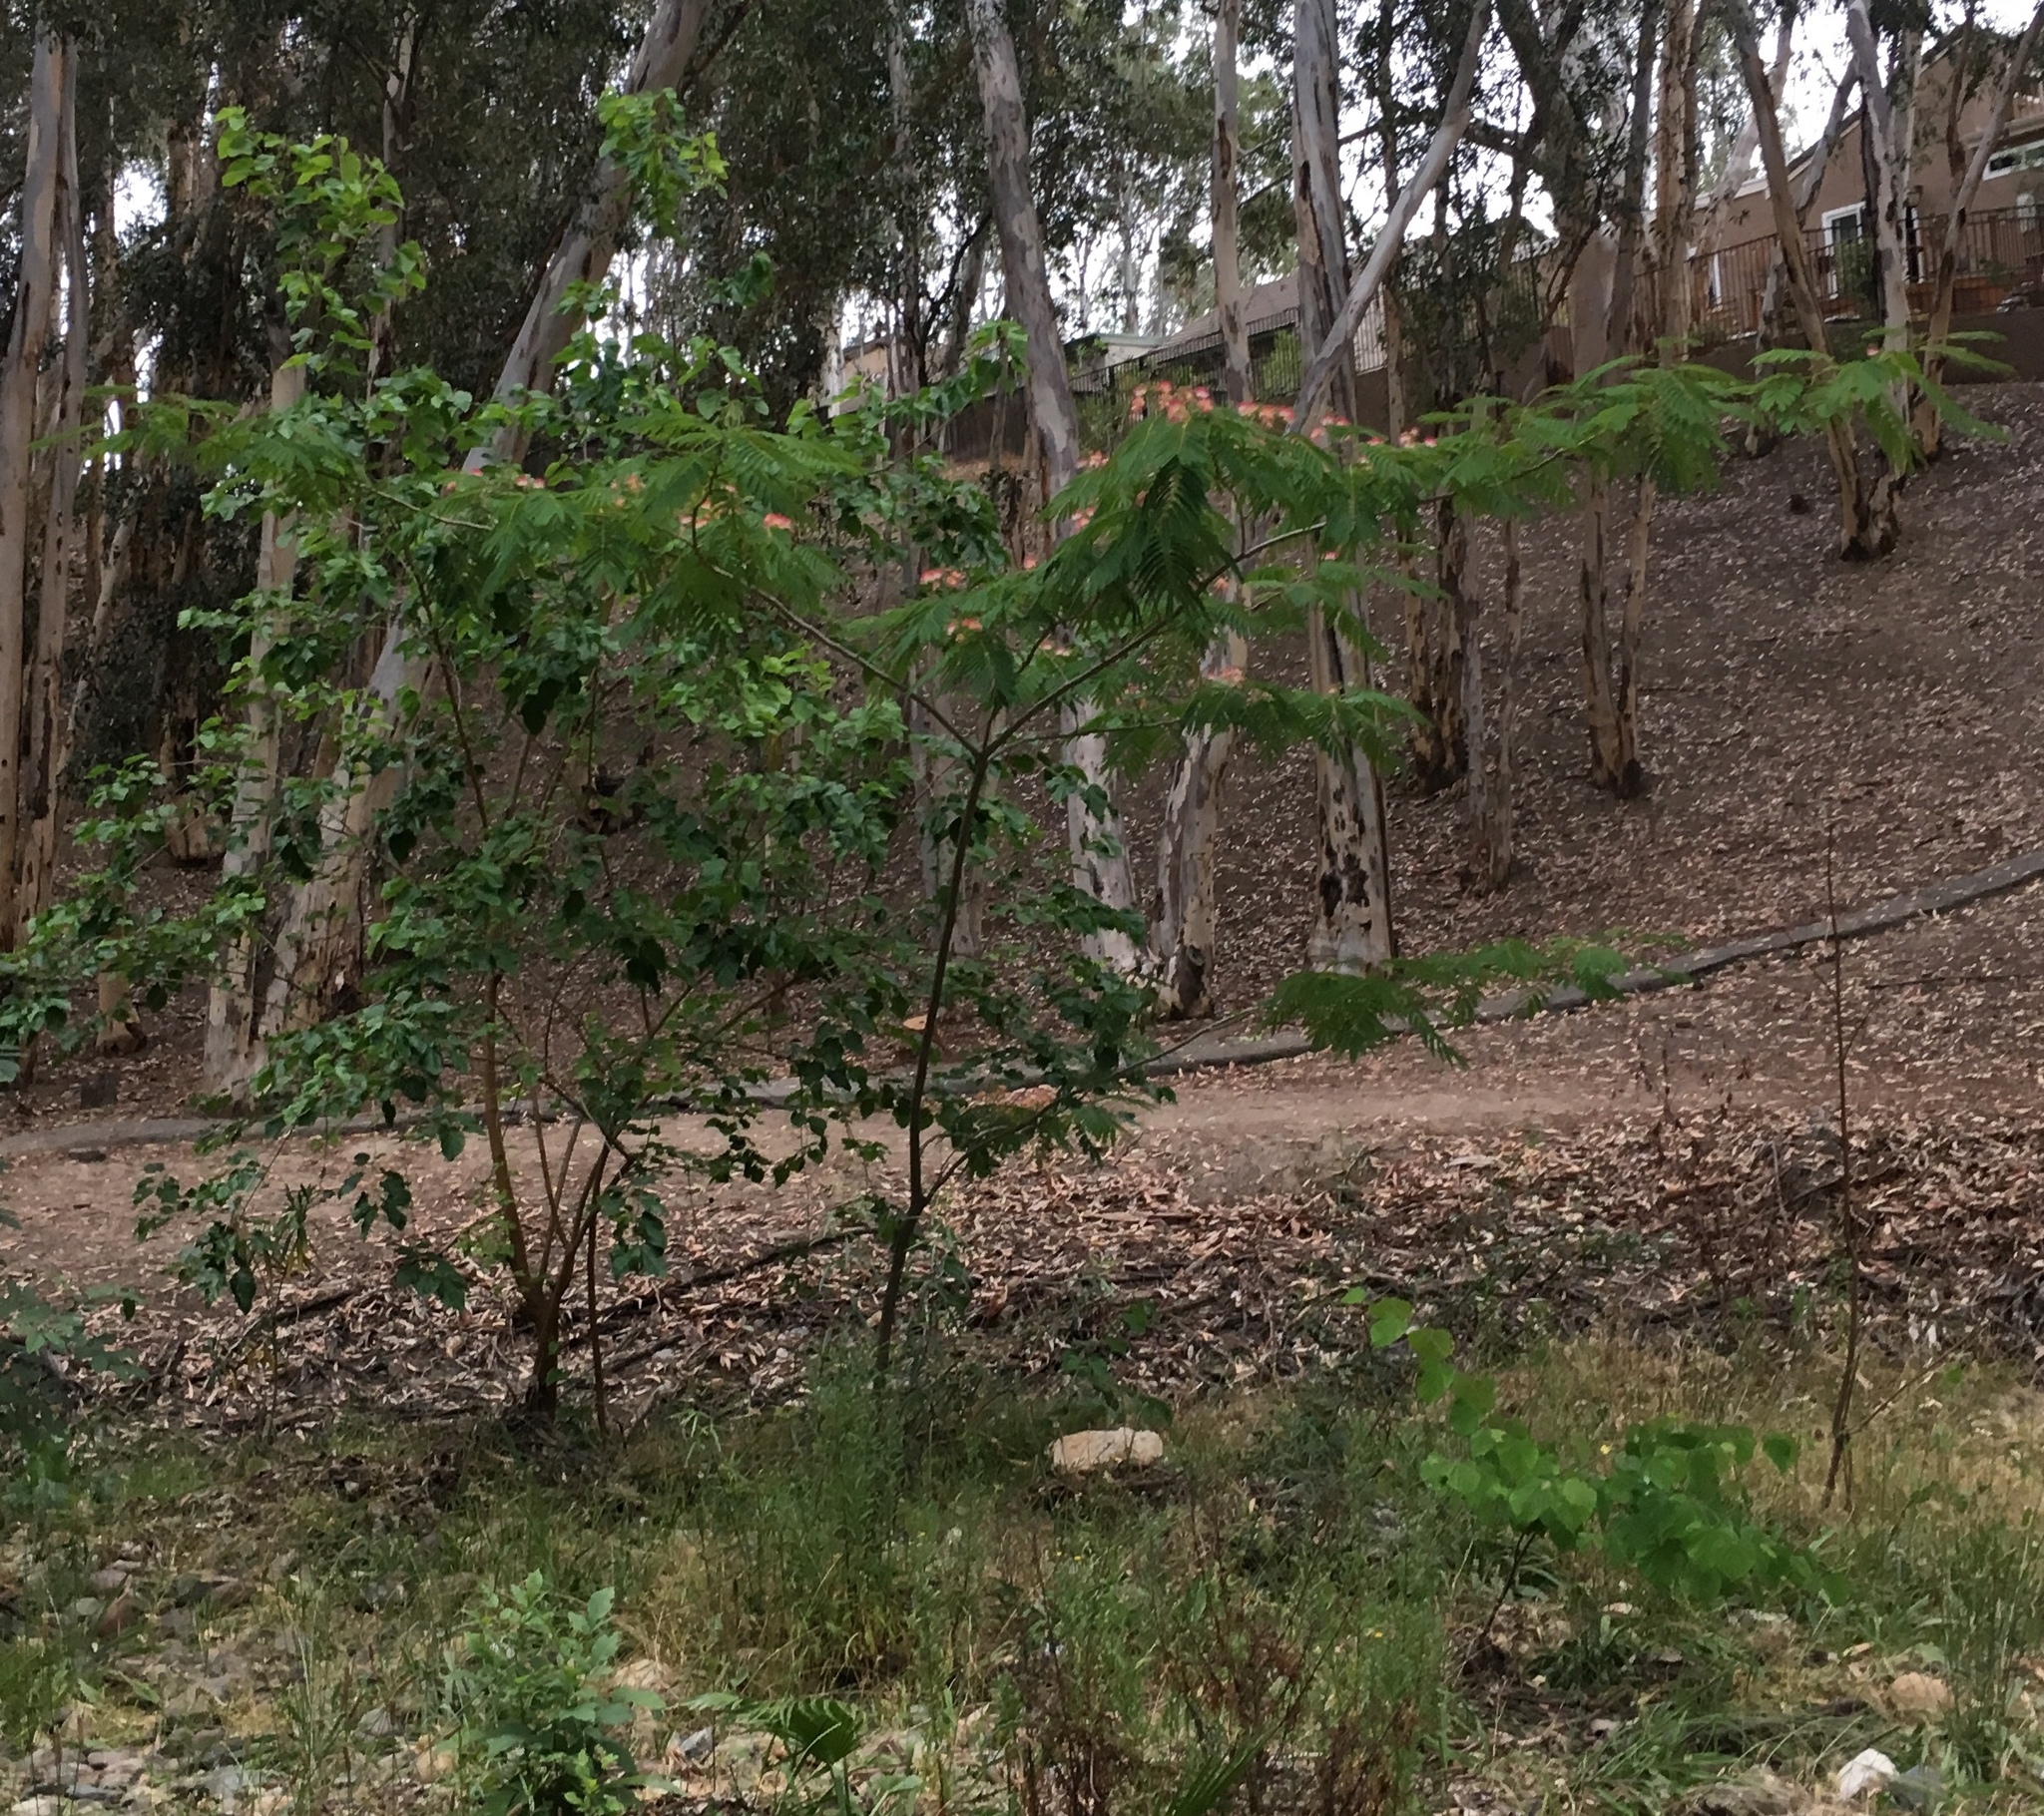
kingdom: Plantae
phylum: Tracheophyta
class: Magnoliopsida
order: Fabales
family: Fabaceae
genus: Albizia
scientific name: Albizia julibrissin
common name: Silktree
